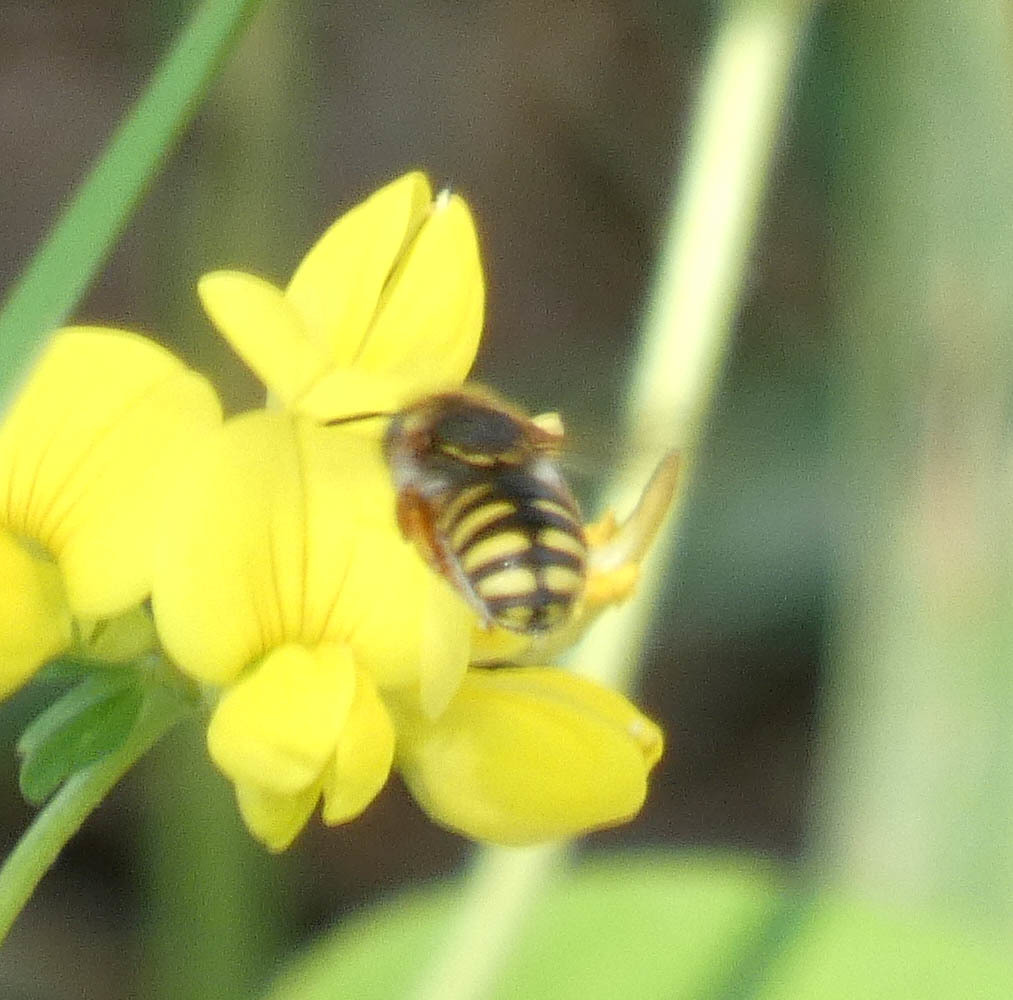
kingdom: Animalia
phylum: Arthropoda
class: Insecta
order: Hymenoptera
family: Megachilidae
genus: Anthidium
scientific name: Anthidium oblongatum
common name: Oblong wool carder bee
